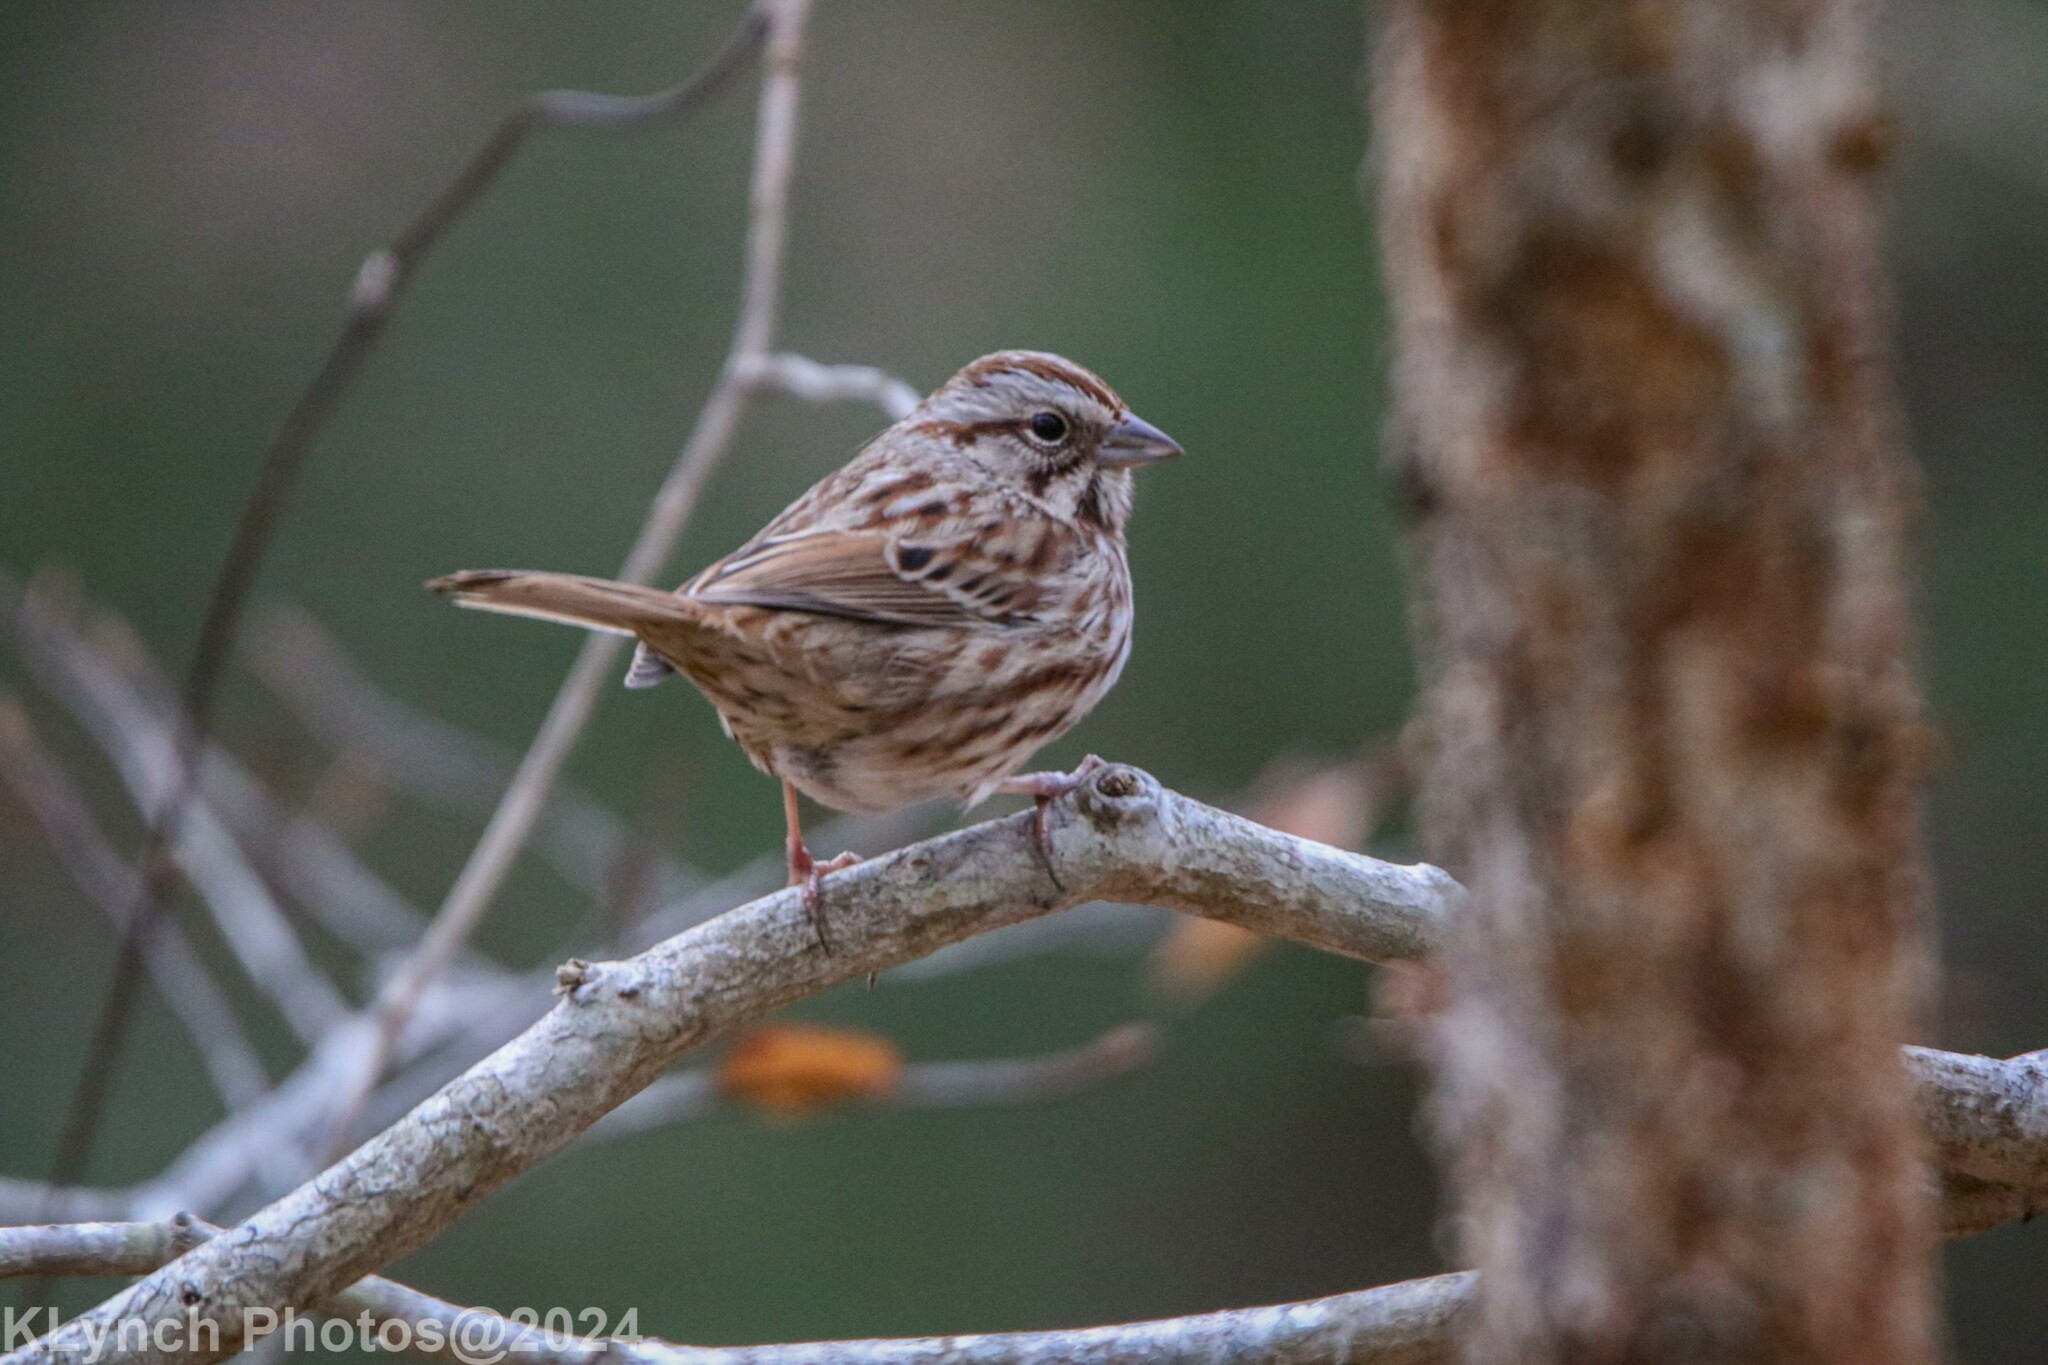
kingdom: Animalia
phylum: Chordata
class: Aves
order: Passeriformes
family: Passerellidae
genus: Melospiza
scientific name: Melospiza melodia
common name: Song sparrow
